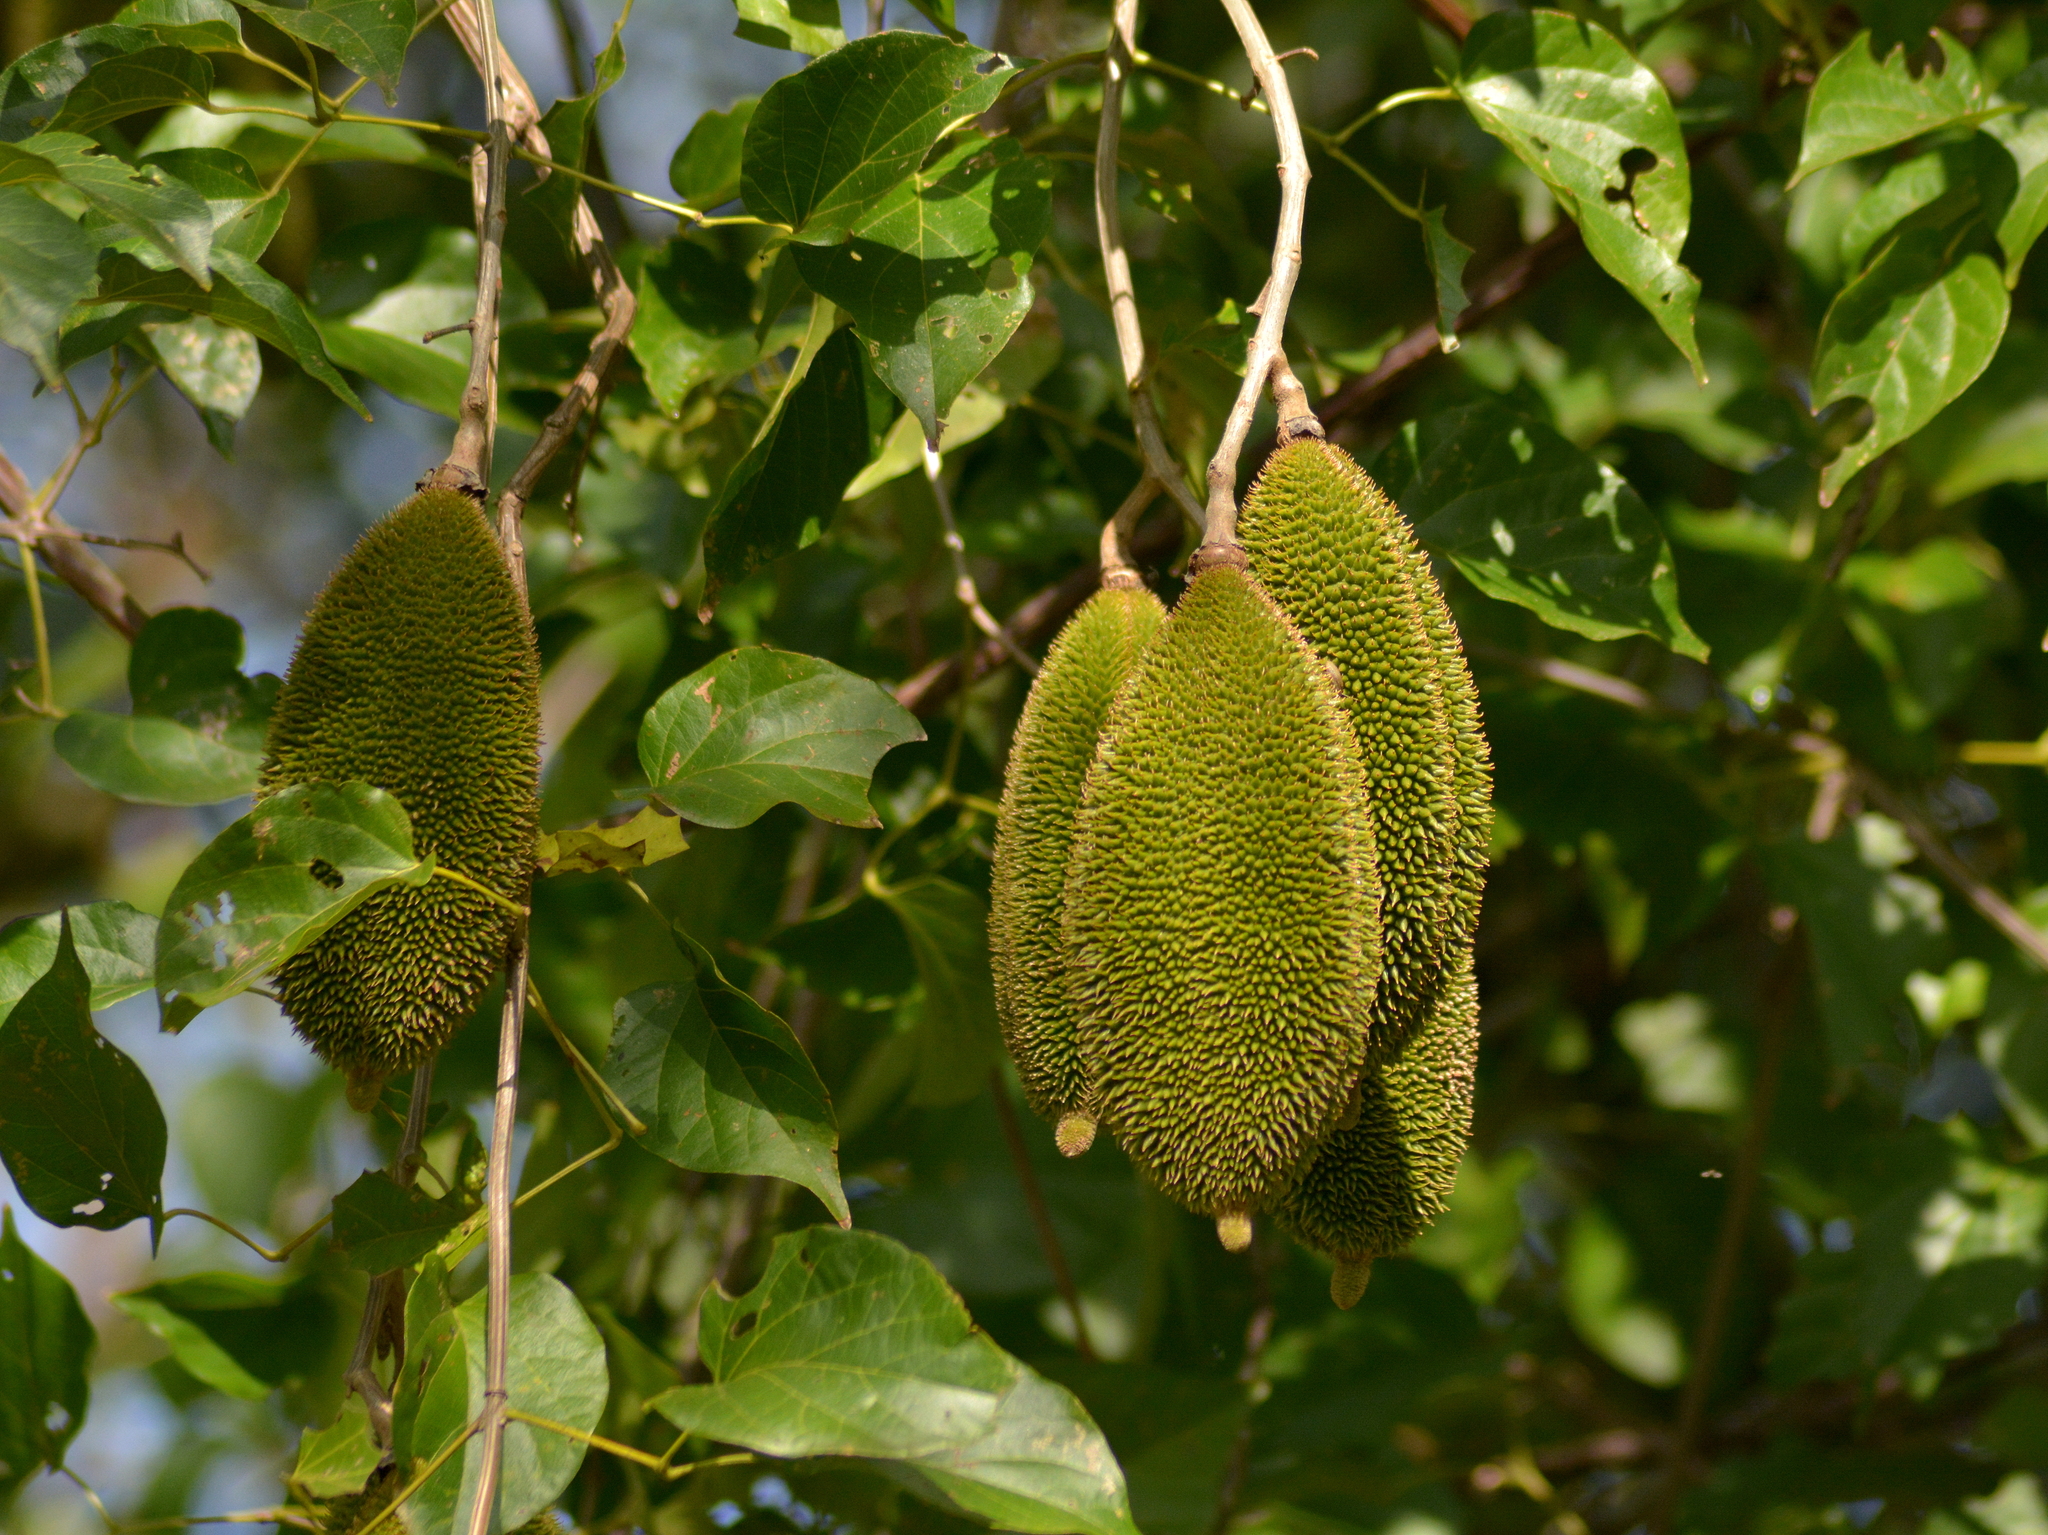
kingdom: Plantae
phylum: Tracheophyta
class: Magnoliopsida
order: Lamiales
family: Bignoniaceae
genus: Amphilophium
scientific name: Amphilophium crucigerum
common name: Monkey comb
